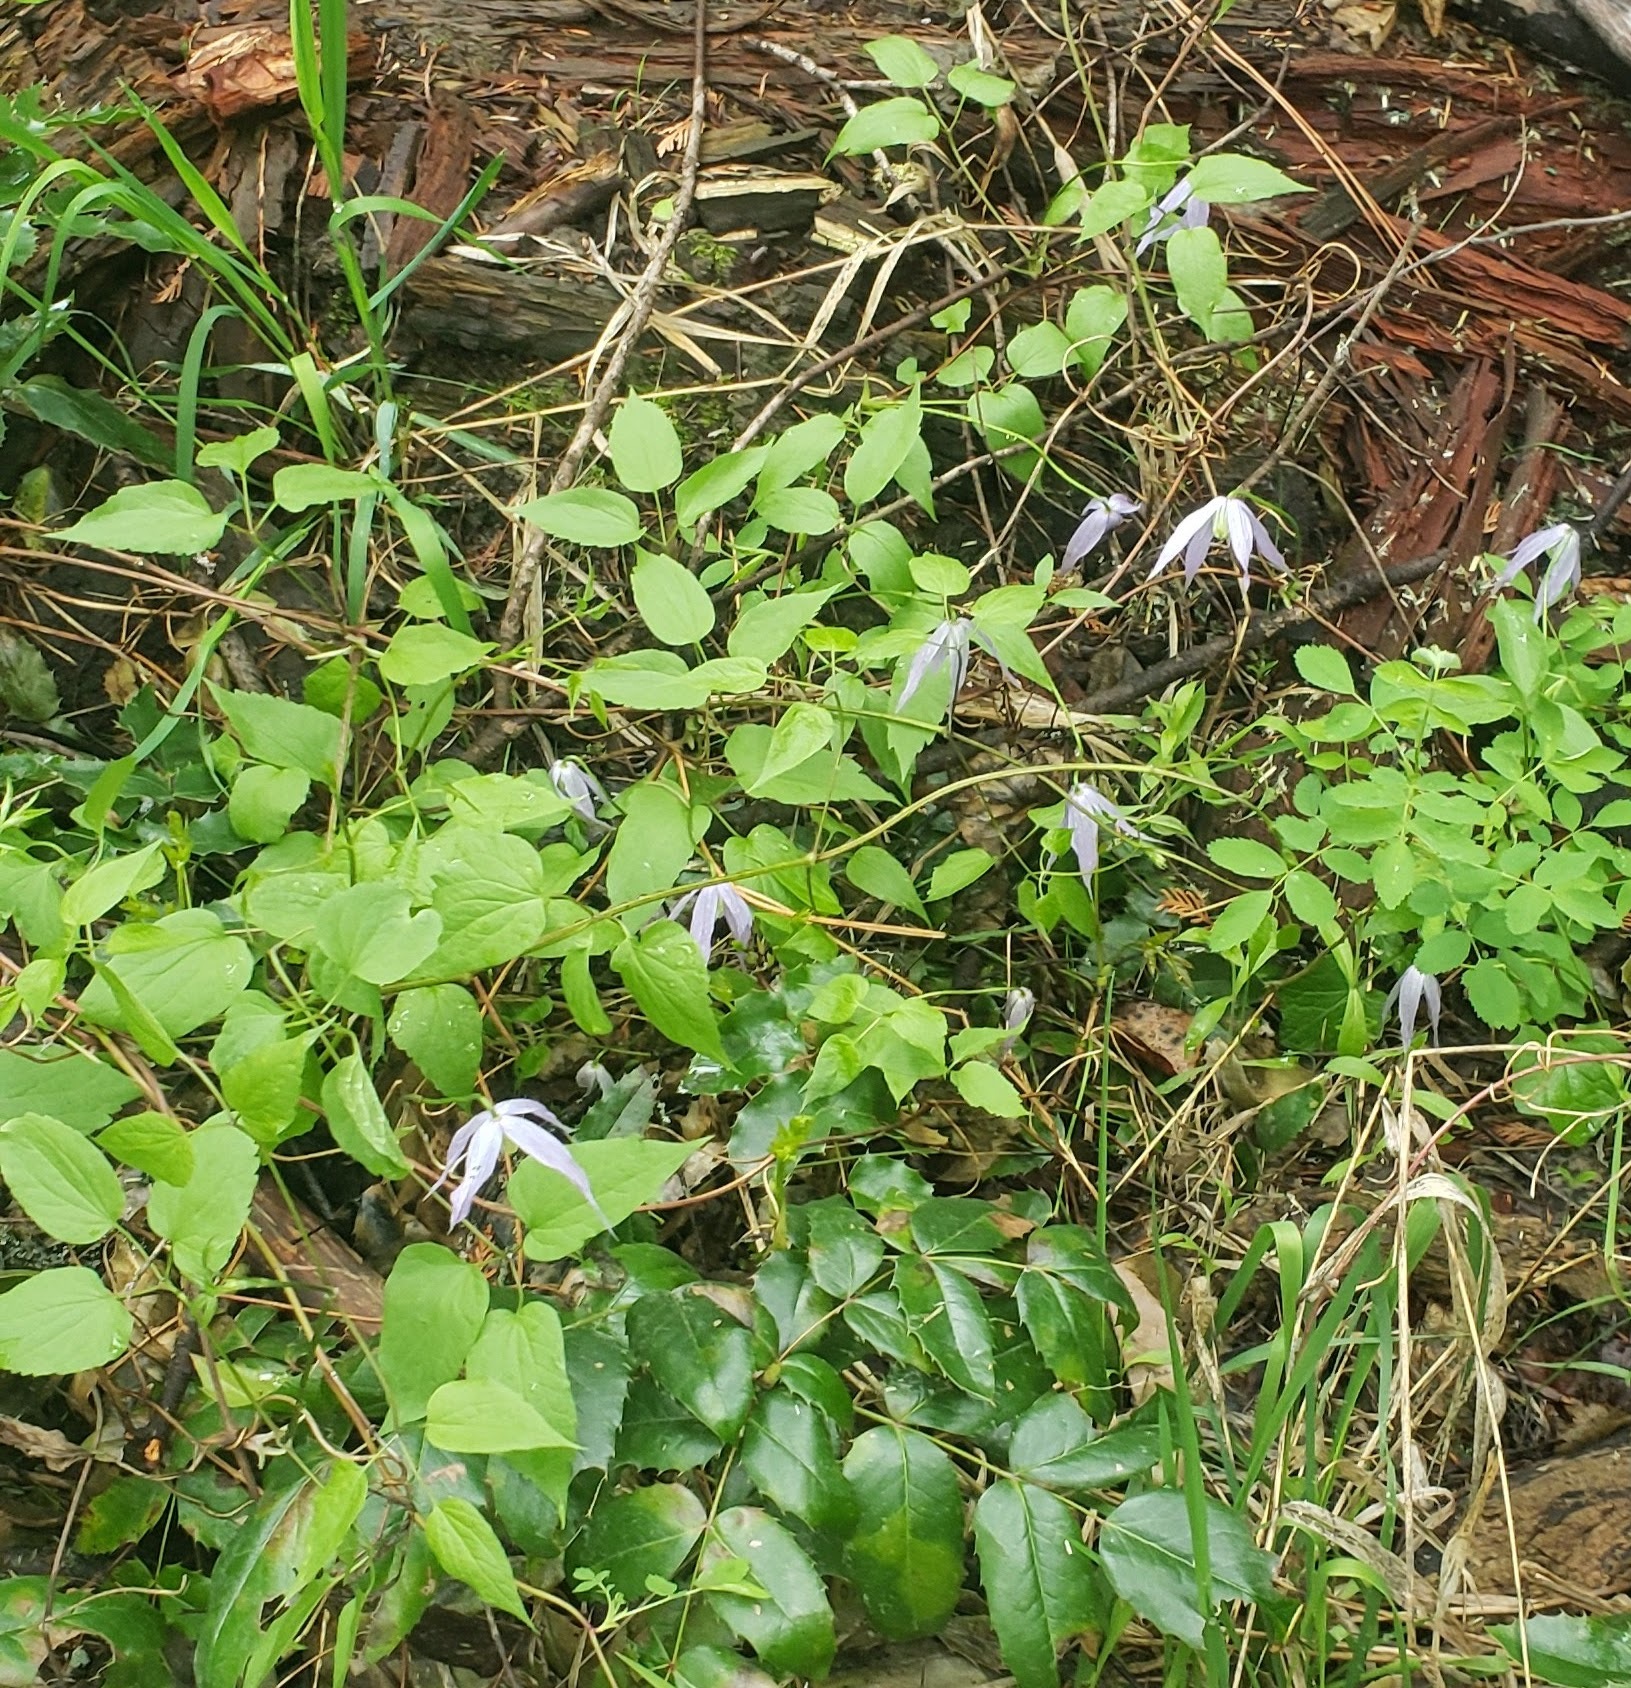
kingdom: Plantae
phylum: Tracheophyta
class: Magnoliopsida
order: Ranunculales
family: Ranunculaceae
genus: Clematis
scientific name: Clematis occidentalis
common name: Purple clematis
